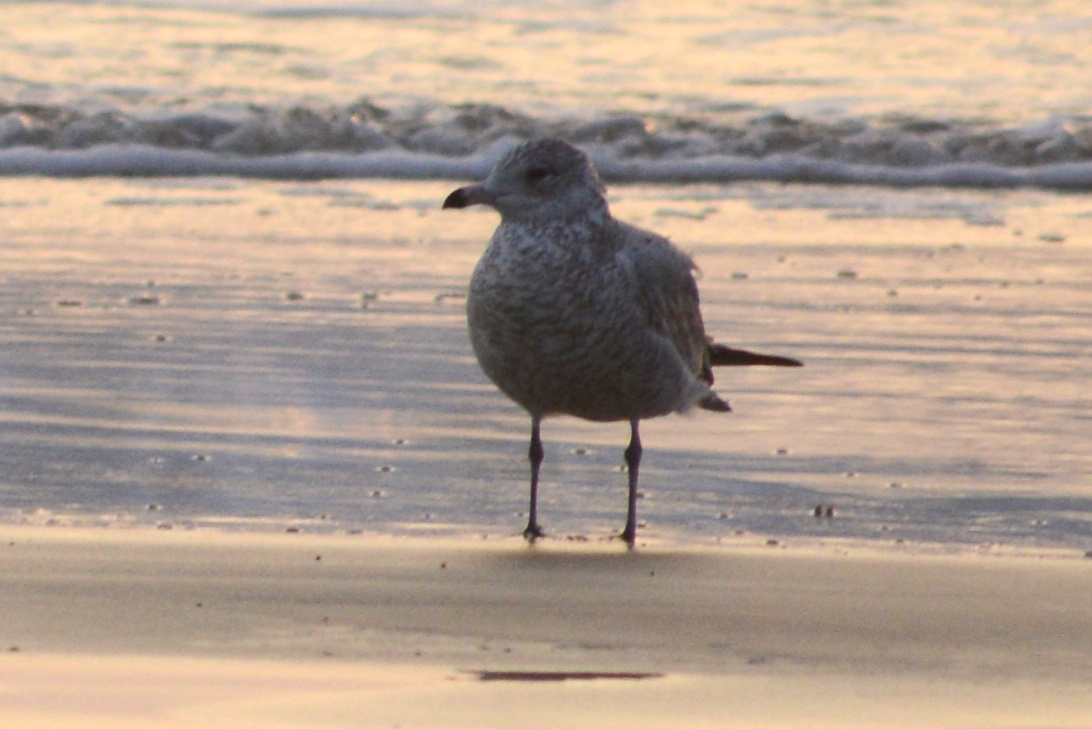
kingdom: Animalia
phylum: Chordata
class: Aves
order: Charadriiformes
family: Laridae
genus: Larus
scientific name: Larus delawarensis
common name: Ring-billed gull
